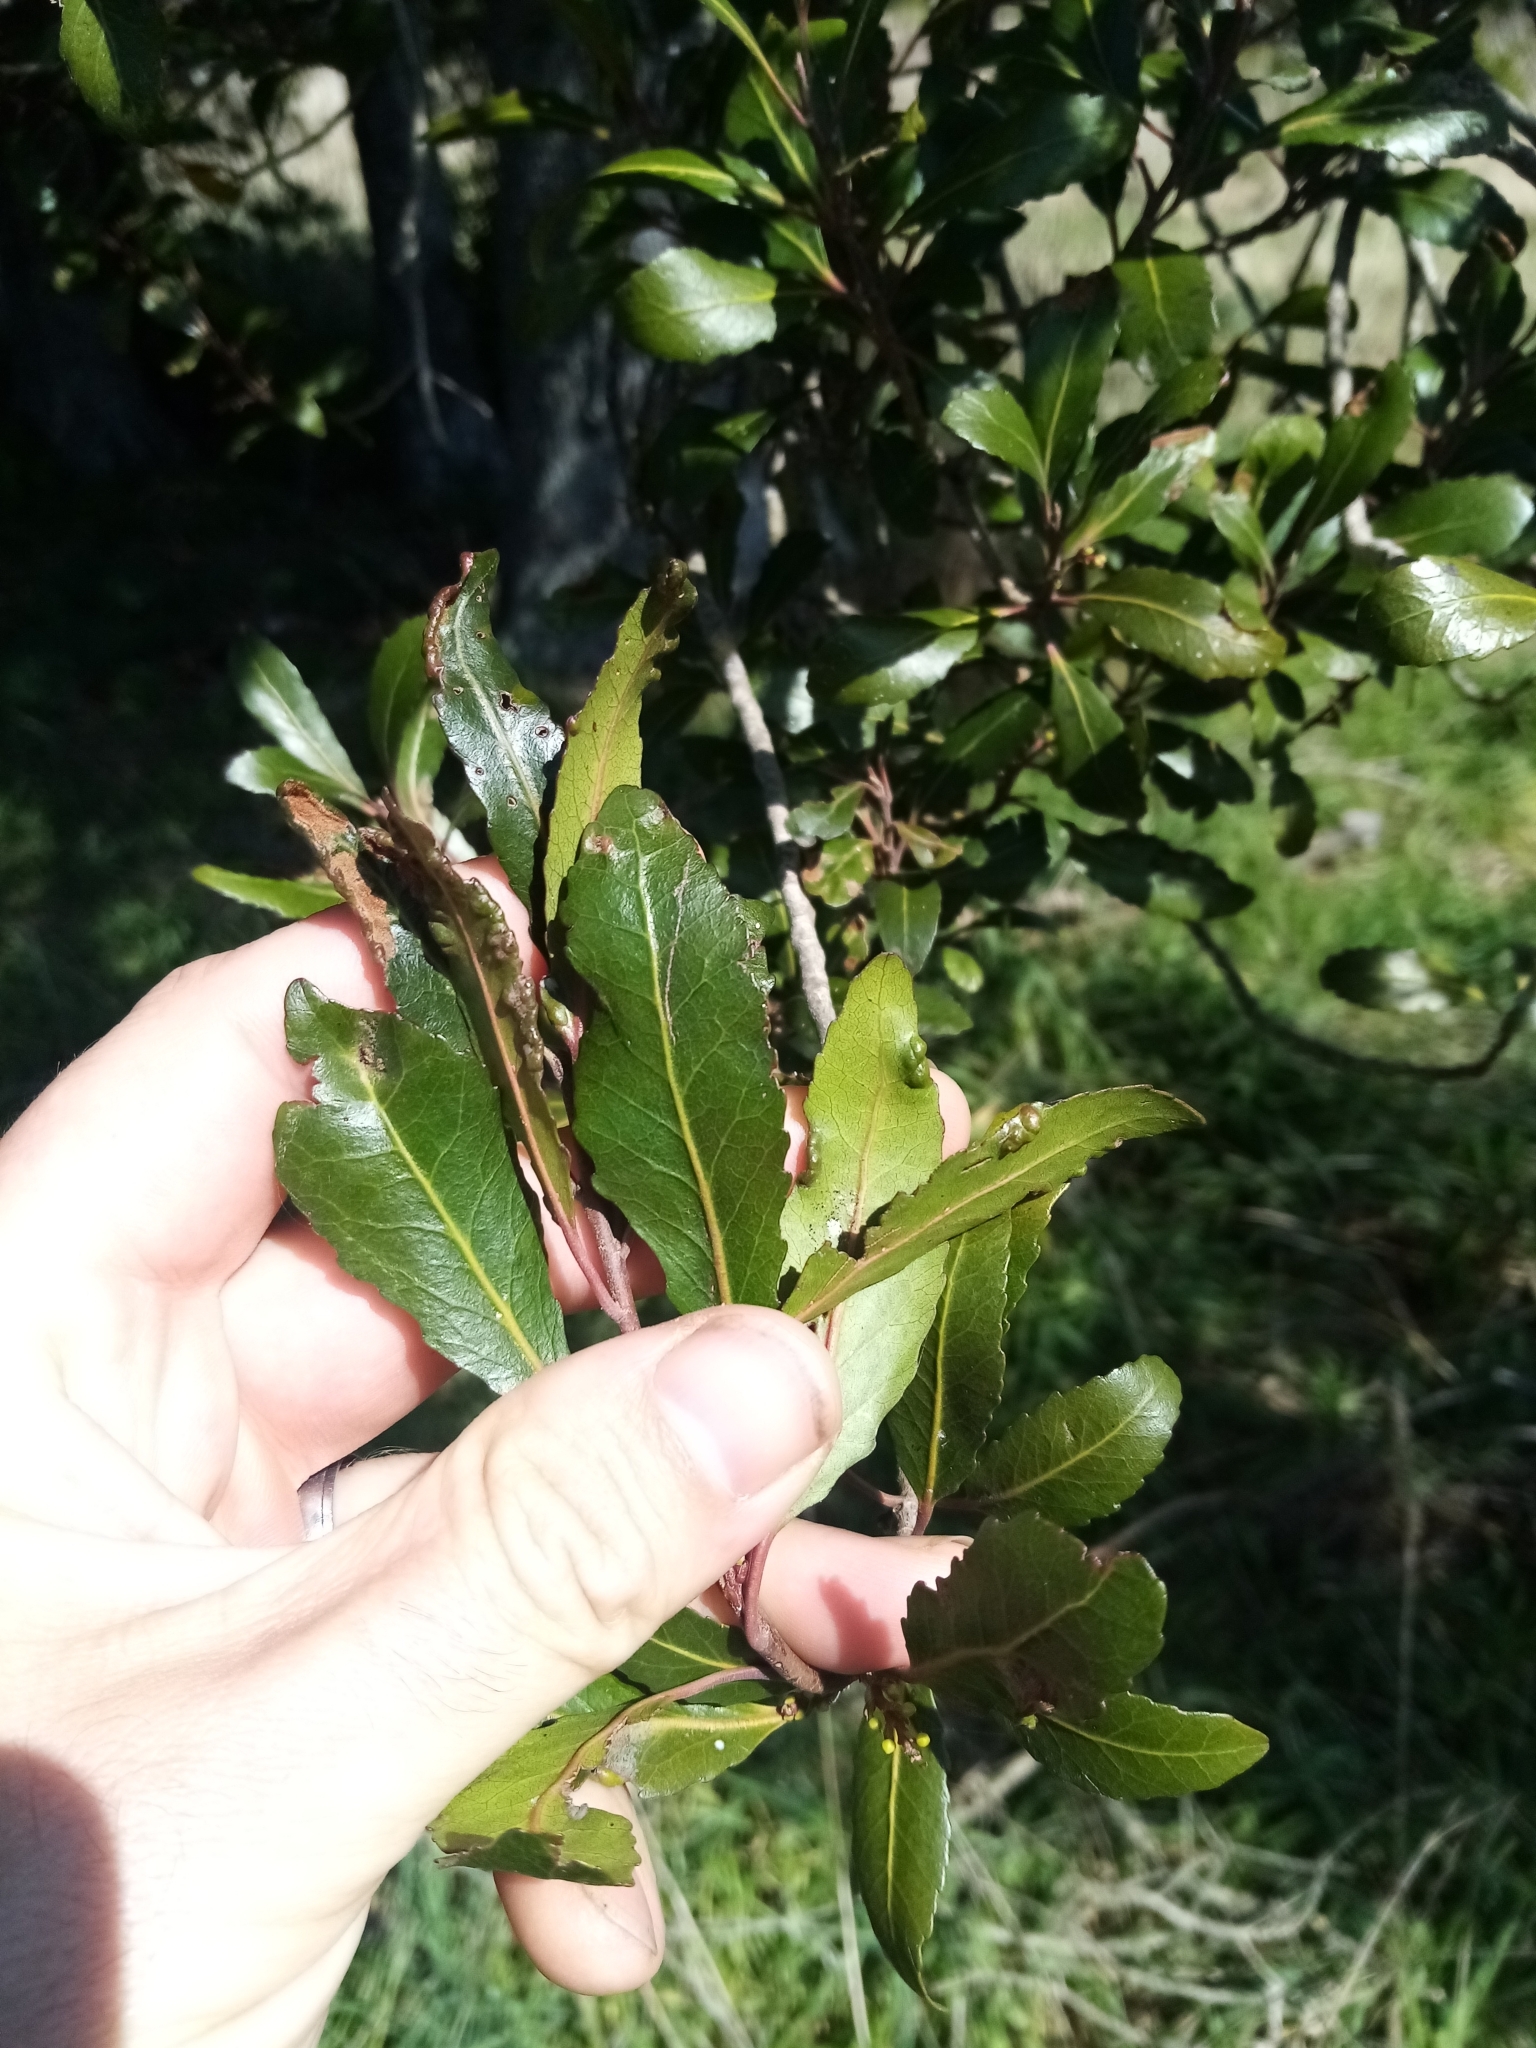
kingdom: Plantae
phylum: Tracheophyta
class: Magnoliopsida
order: Oxalidales
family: Elaeocarpaceae
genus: Elaeocarpus
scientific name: Elaeocarpus hookerianus
